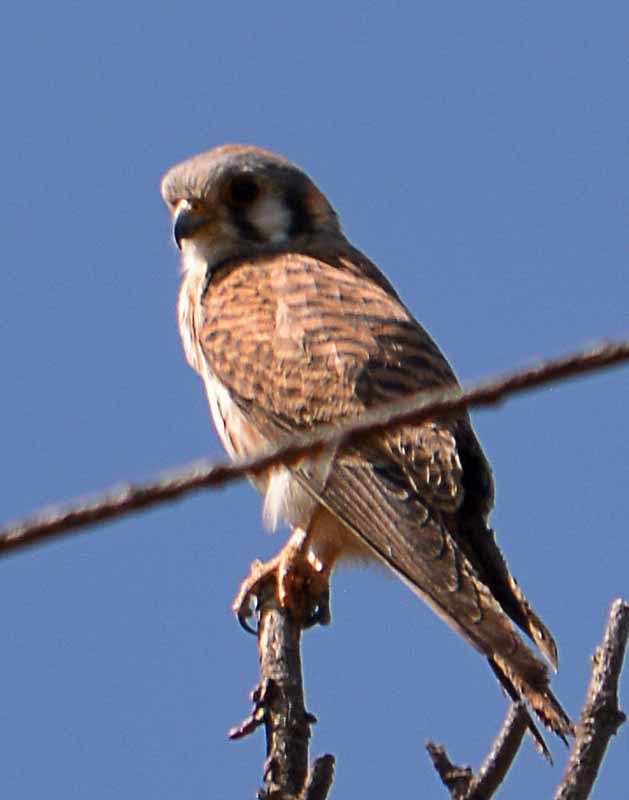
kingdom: Animalia
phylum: Chordata
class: Aves
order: Falconiformes
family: Falconidae
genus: Falco
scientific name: Falco sparverius
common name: American kestrel
